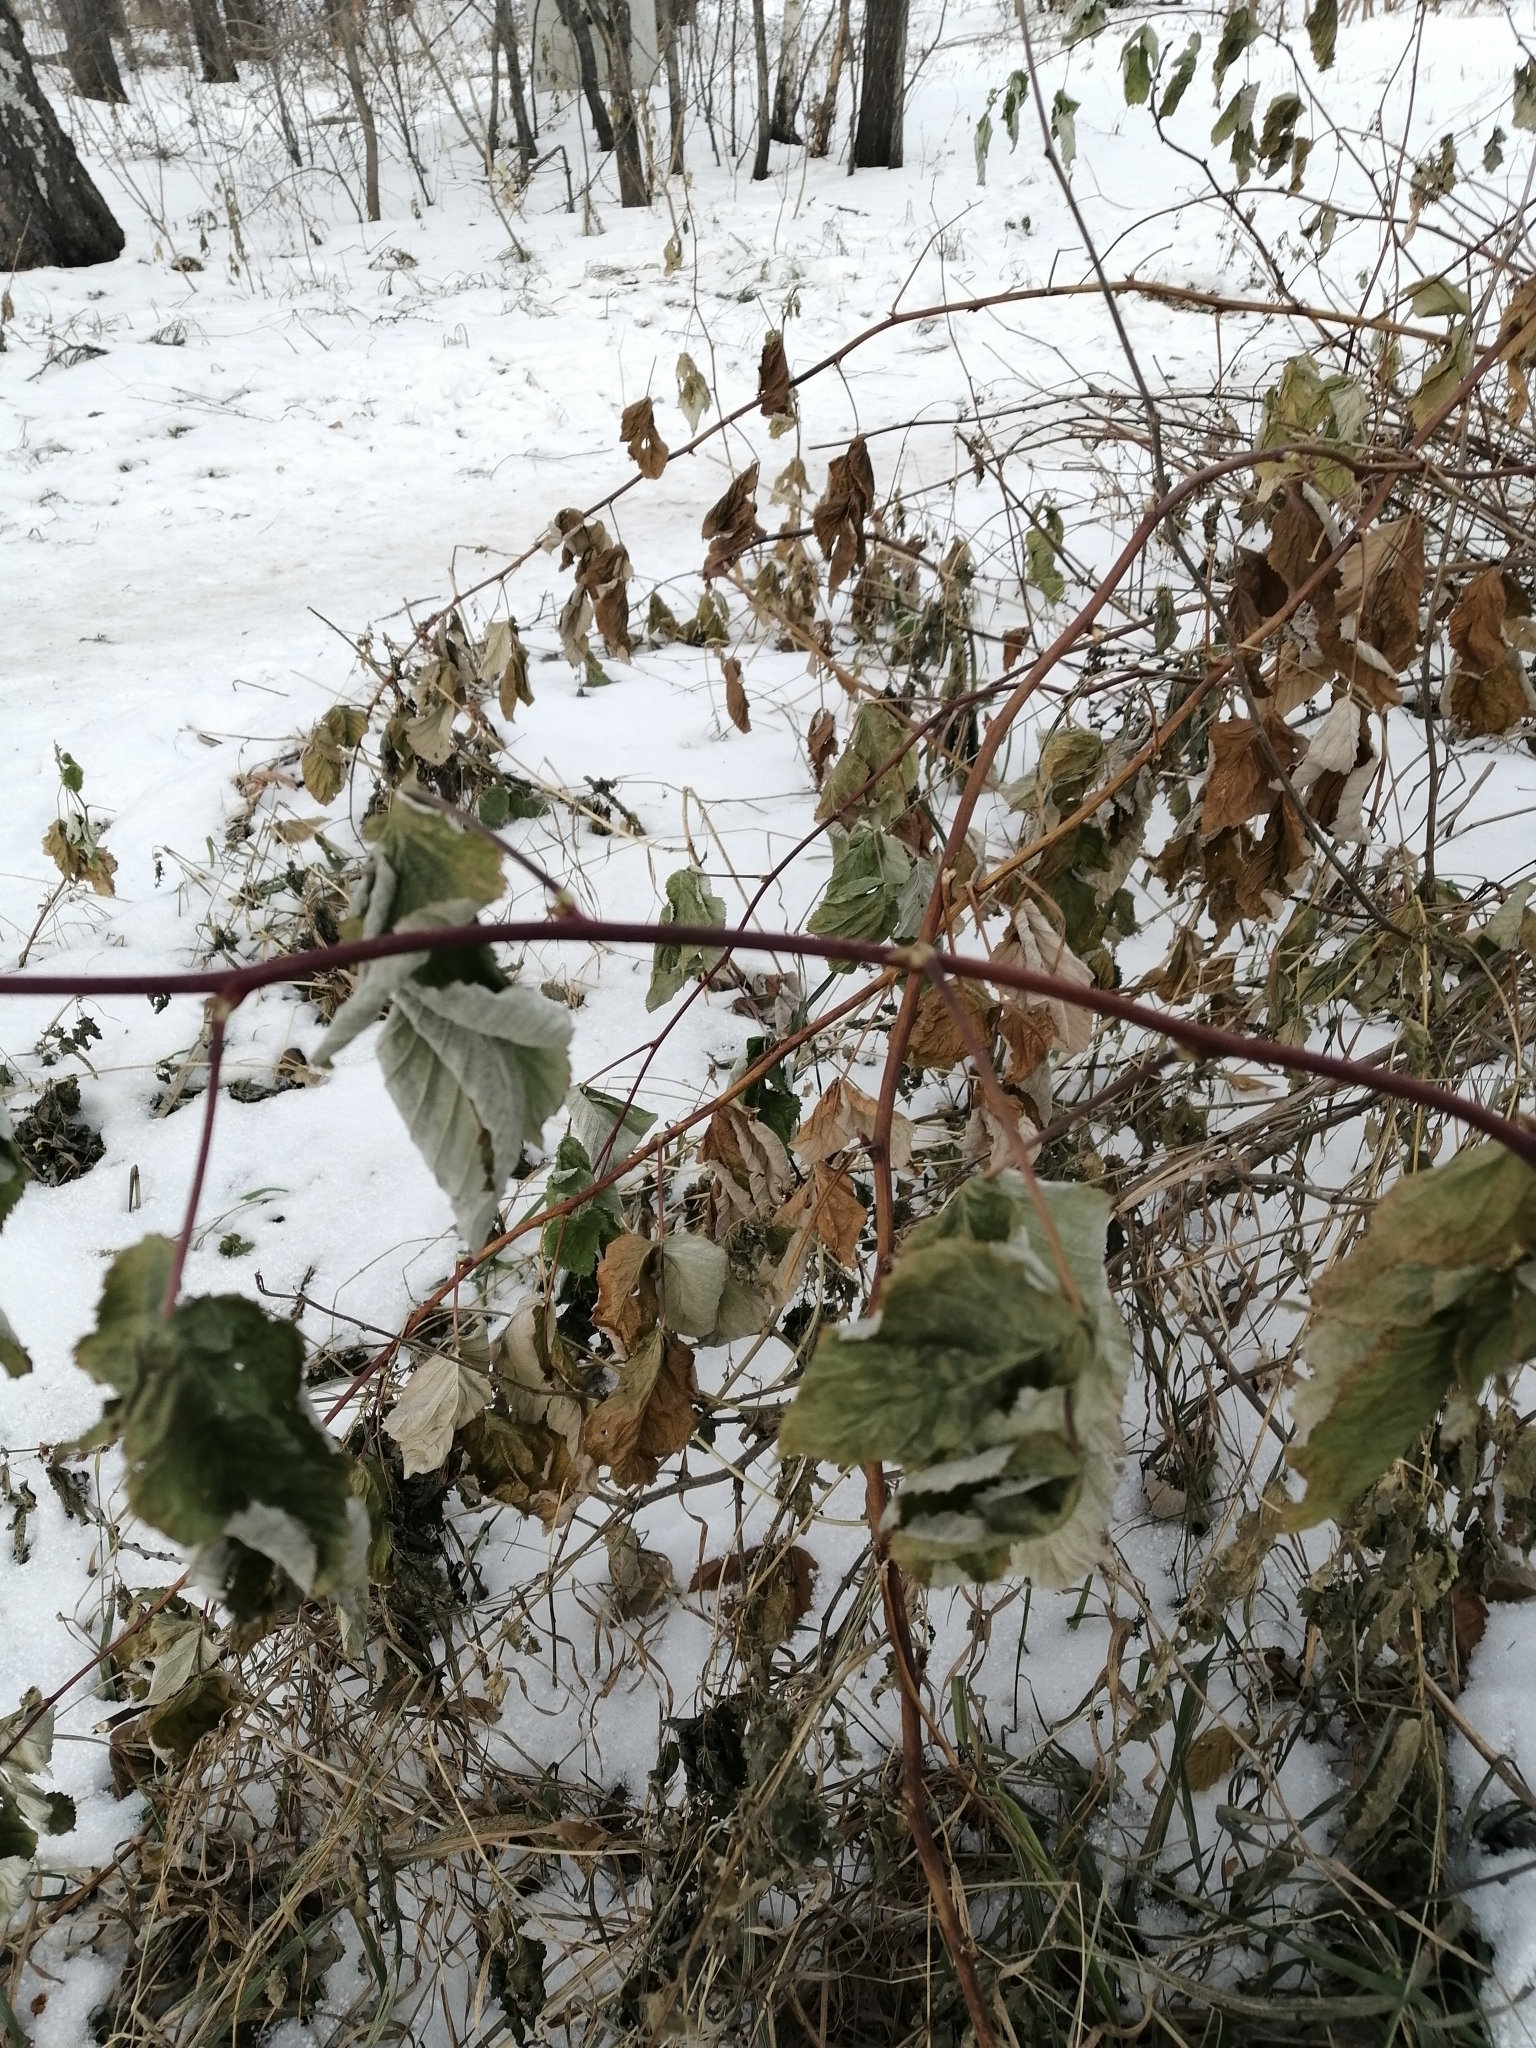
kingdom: Plantae
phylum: Tracheophyta
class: Magnoliopsida
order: Rosales
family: Rosaceae
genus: Rubus
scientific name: Rubus idaeus
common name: Raspberry
